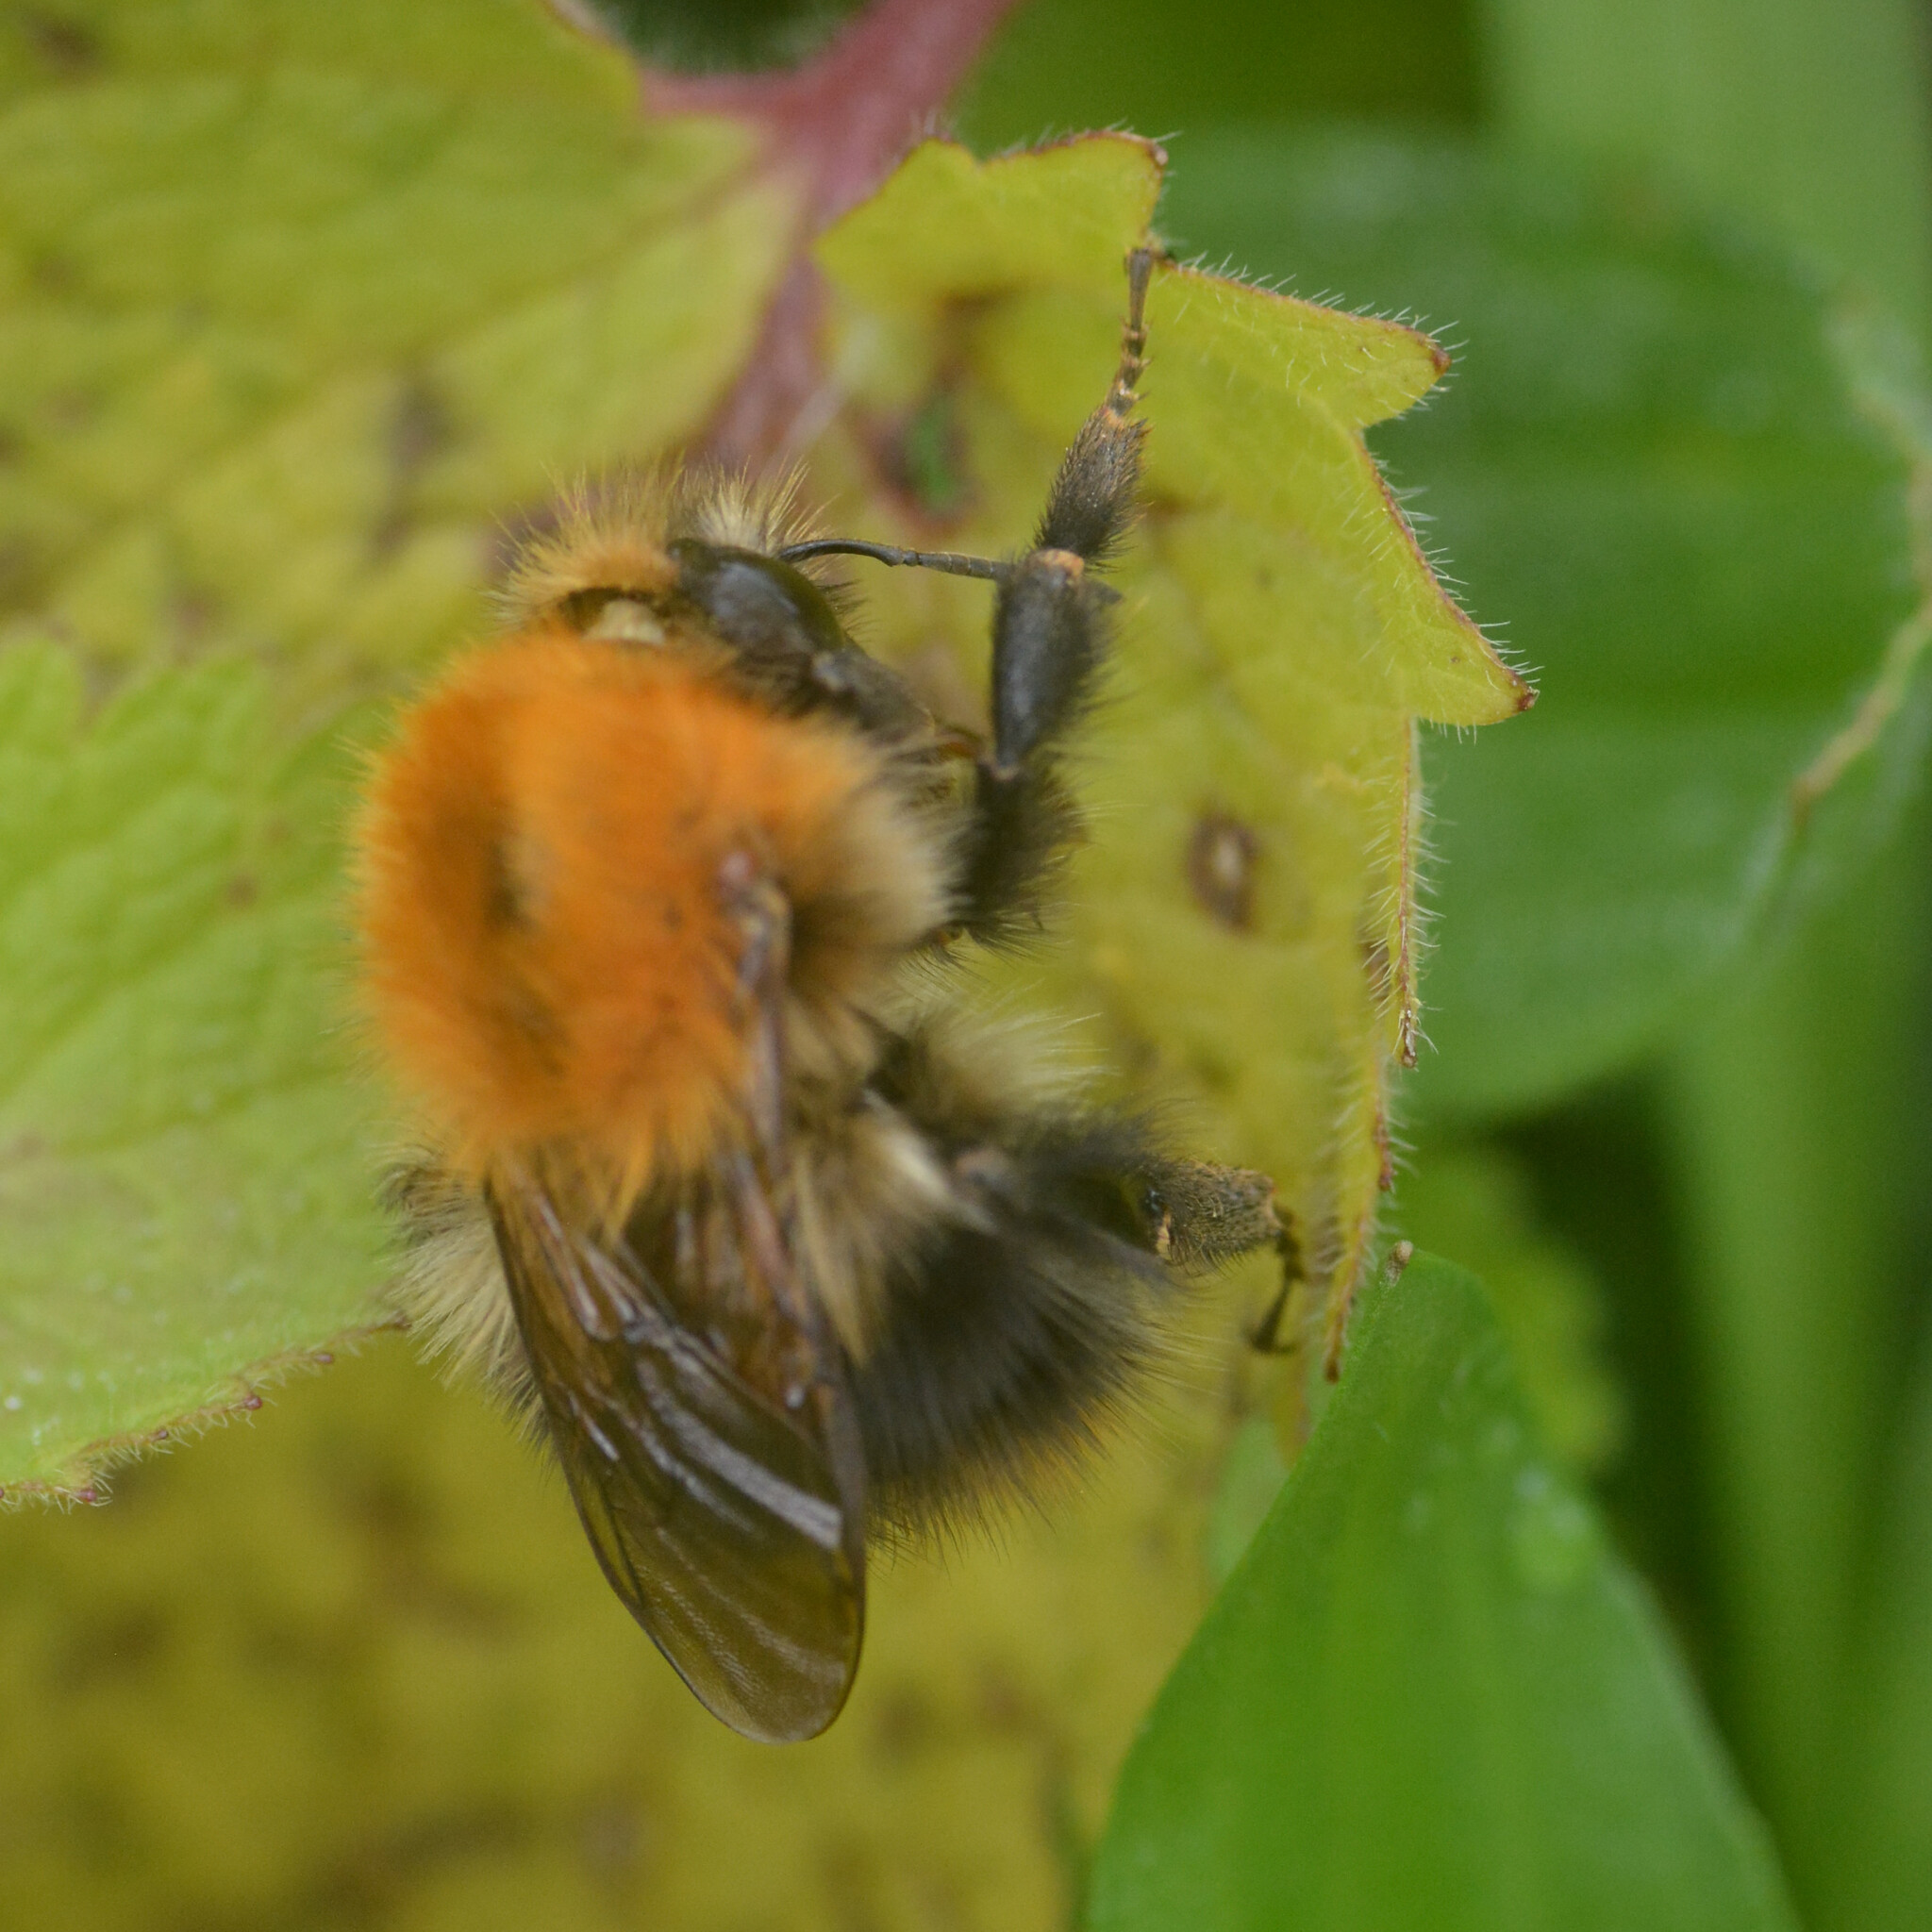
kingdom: Animalia
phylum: Arthropoda
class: Insecta
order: Hymenoptera
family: Apidae
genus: Bombus
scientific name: Bombus pascuorum
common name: Common carder bee
